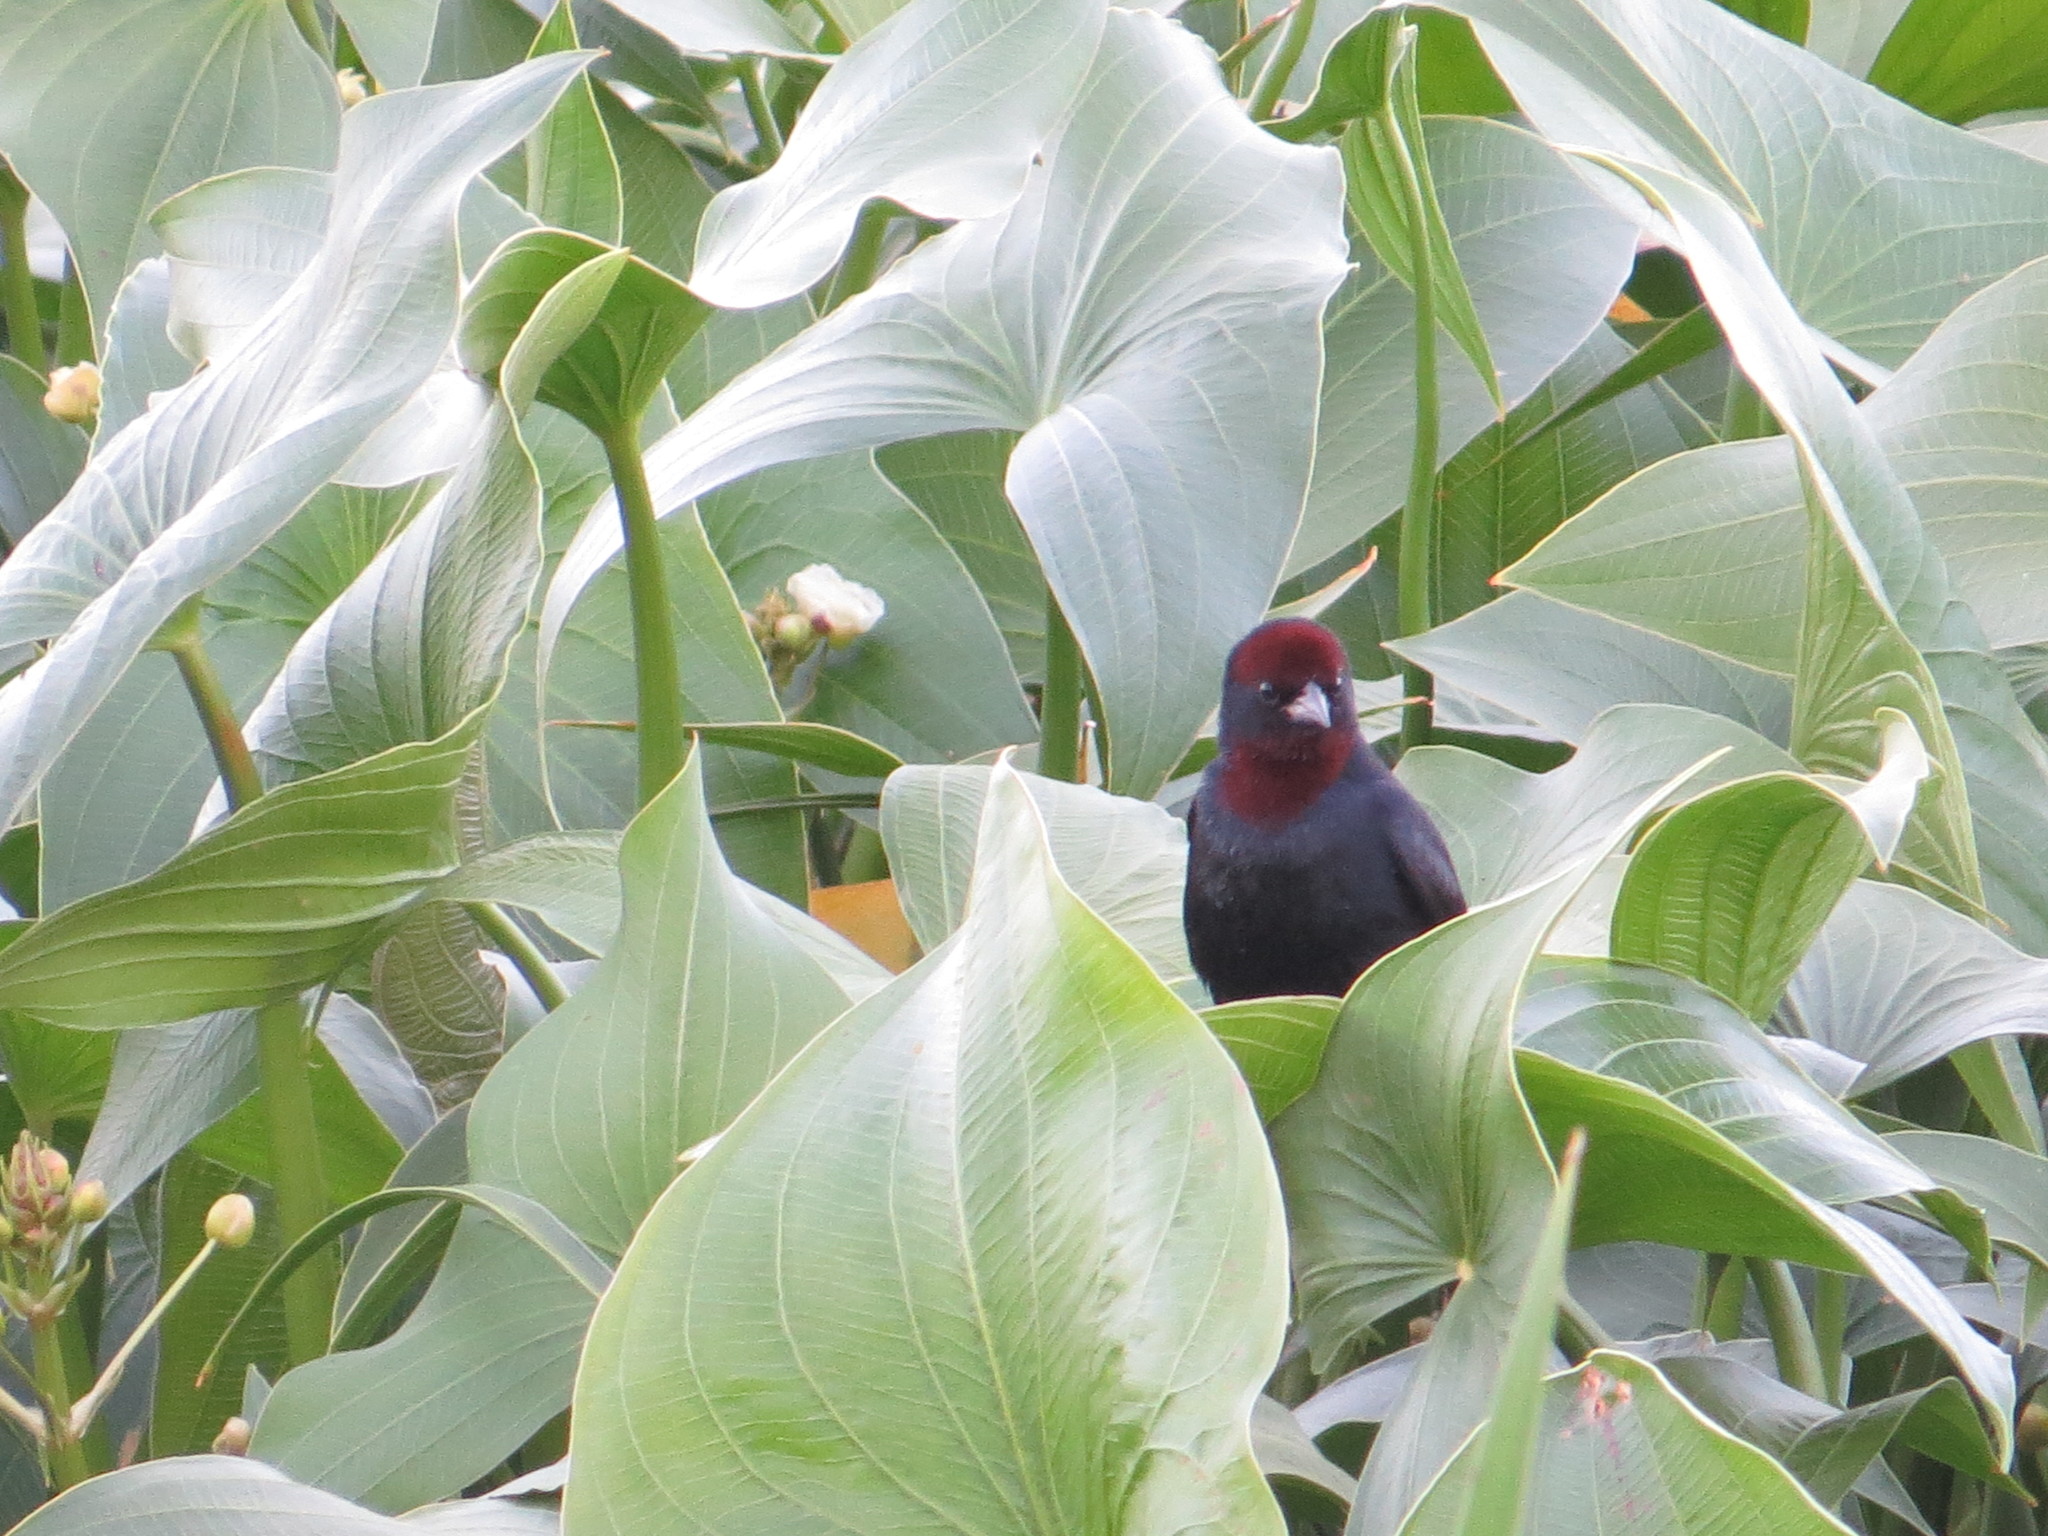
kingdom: Animalia
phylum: Chordata
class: Aves
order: Passeriformes
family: Icteridae
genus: Chrysomus
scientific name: Chrysomus ruficapillus
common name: Chestnut-capped blackbird
